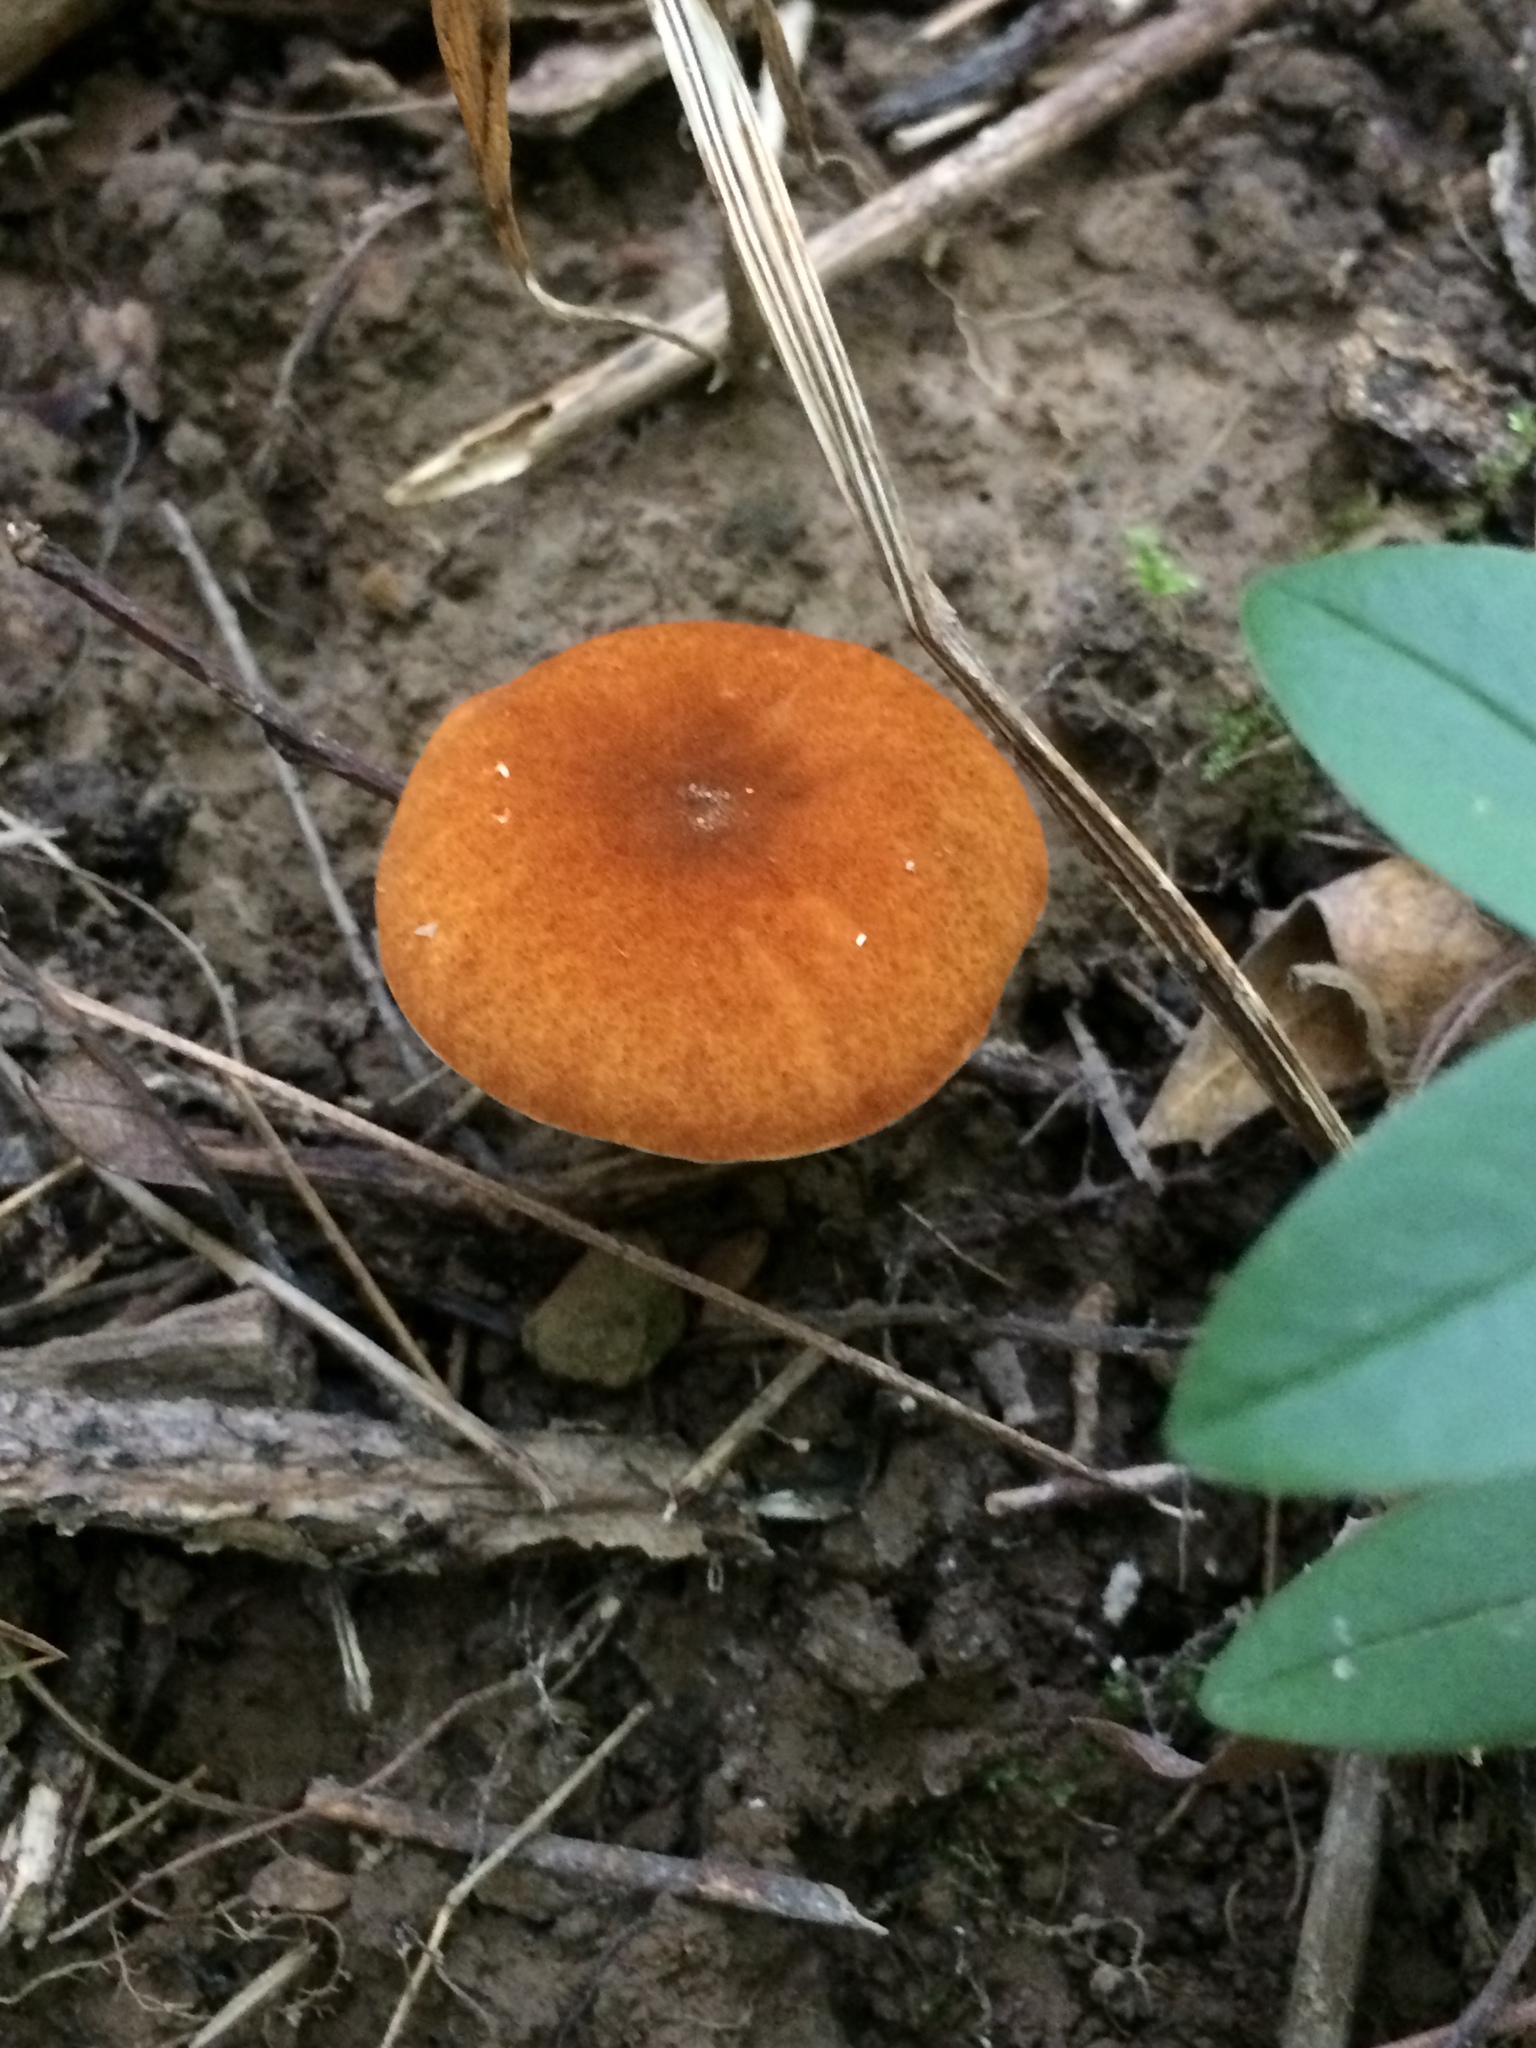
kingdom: Fungi
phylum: Basidiomycota
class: Agaricomycetes
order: Boletales
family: Gyroporaceae
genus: Gyroporus
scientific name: Gyroporus borealis
